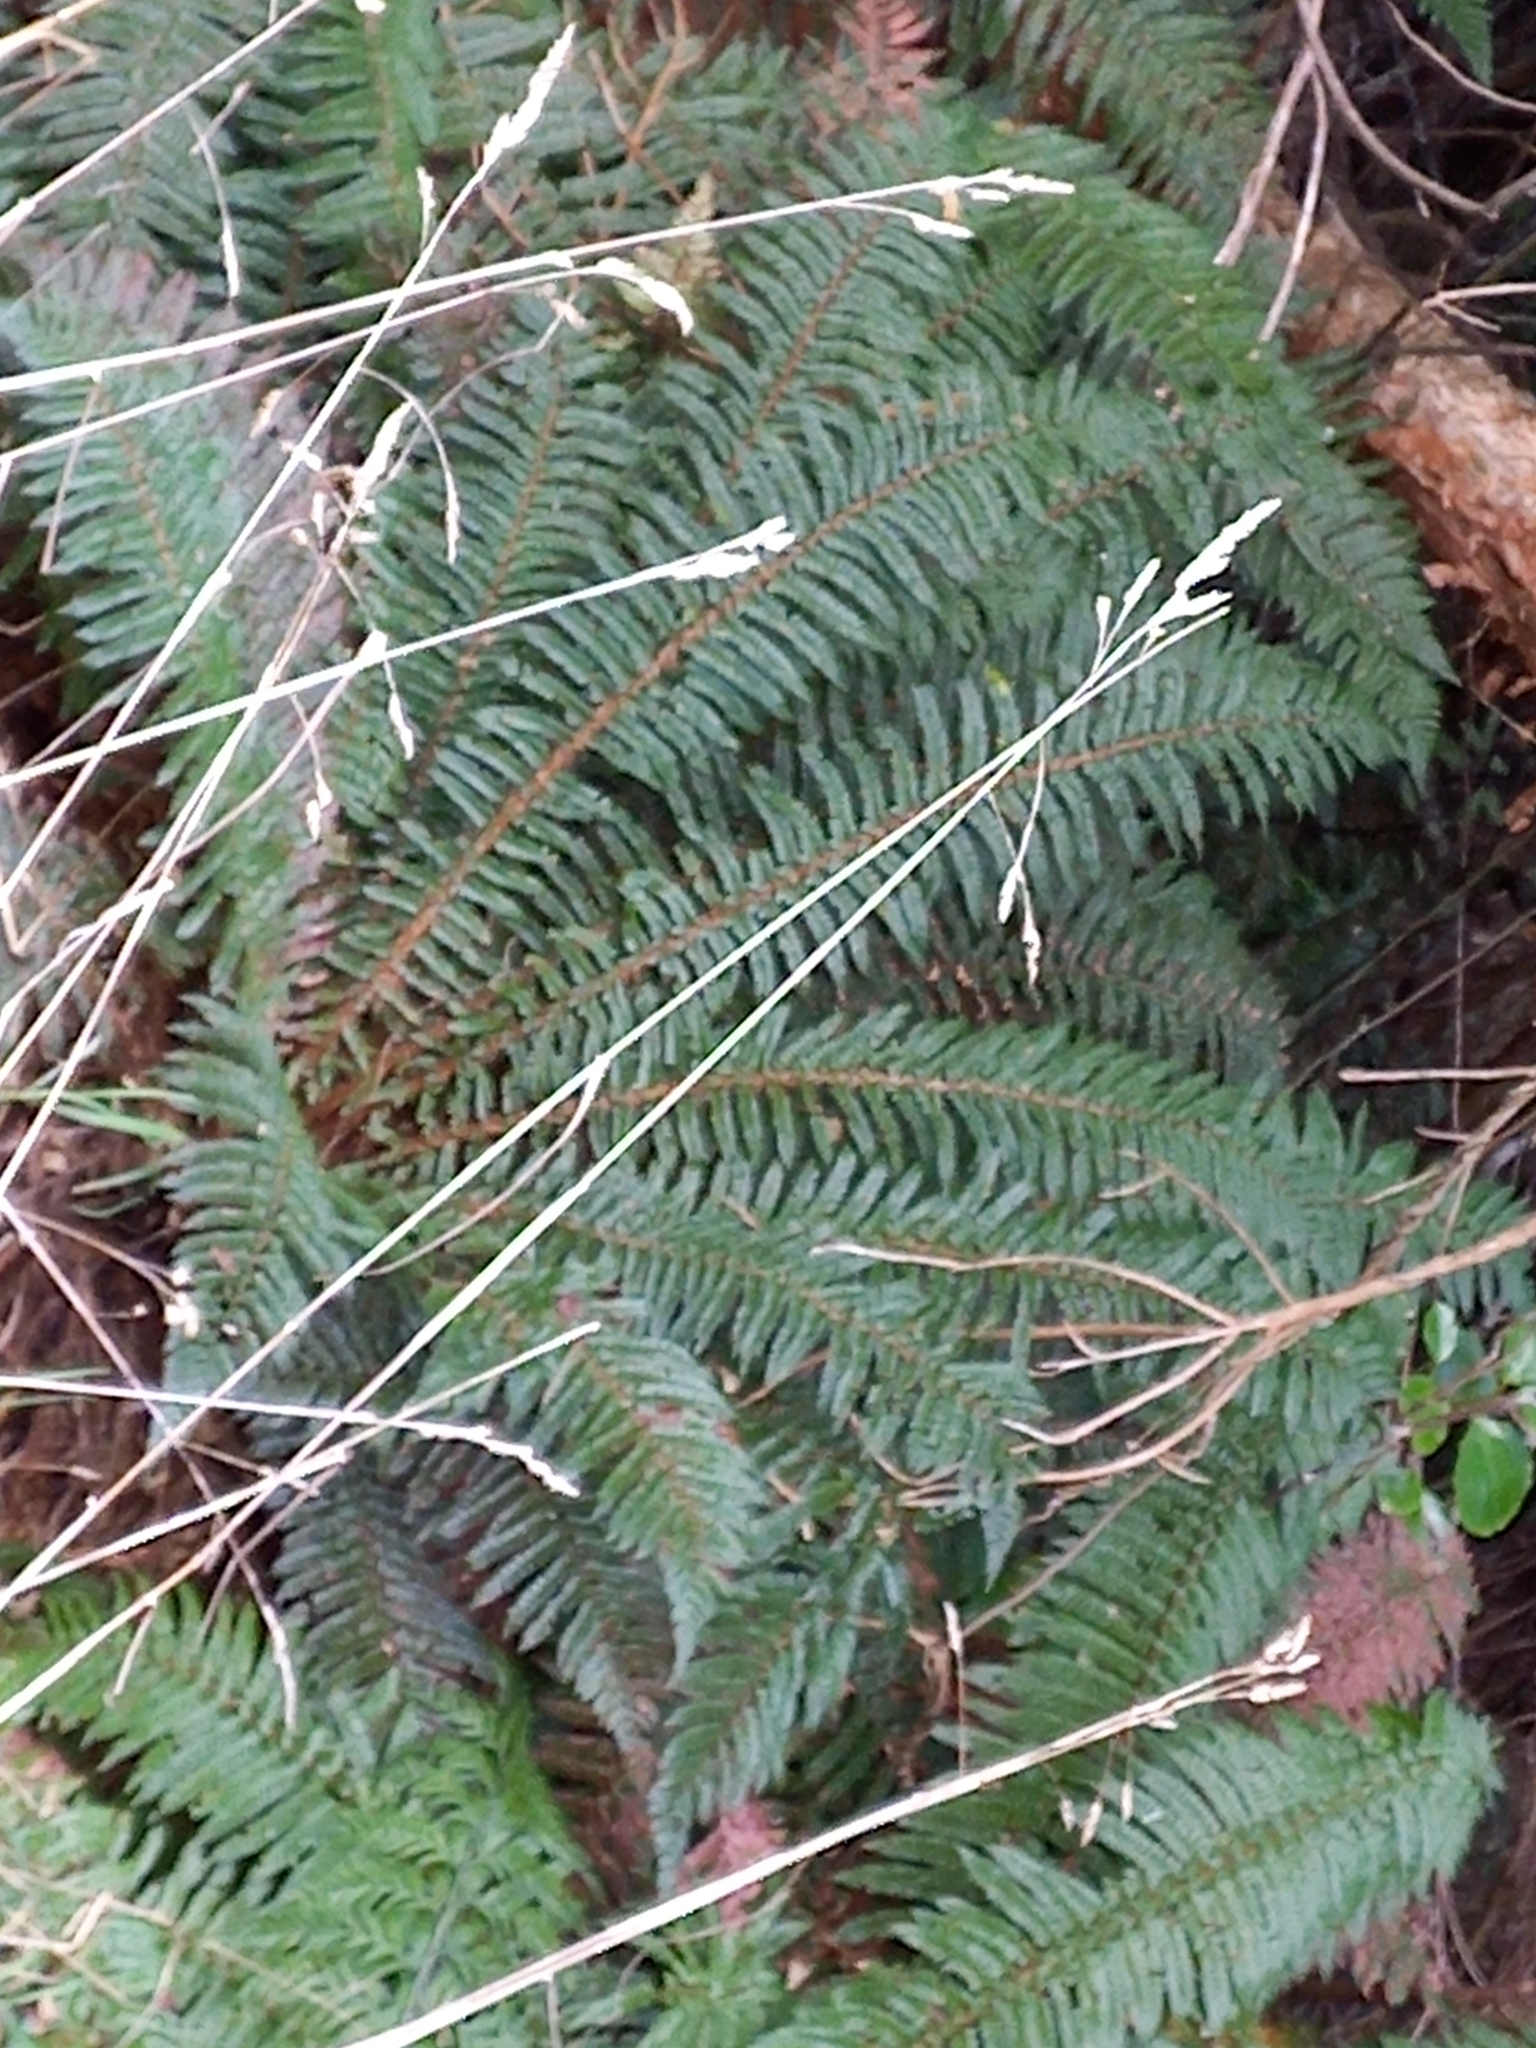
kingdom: Plantae
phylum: Tracheophyta
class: Polypodiopsida
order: Polypodiales
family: Dryopteridaceae
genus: Polystichum
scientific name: Polystichum vestitum
